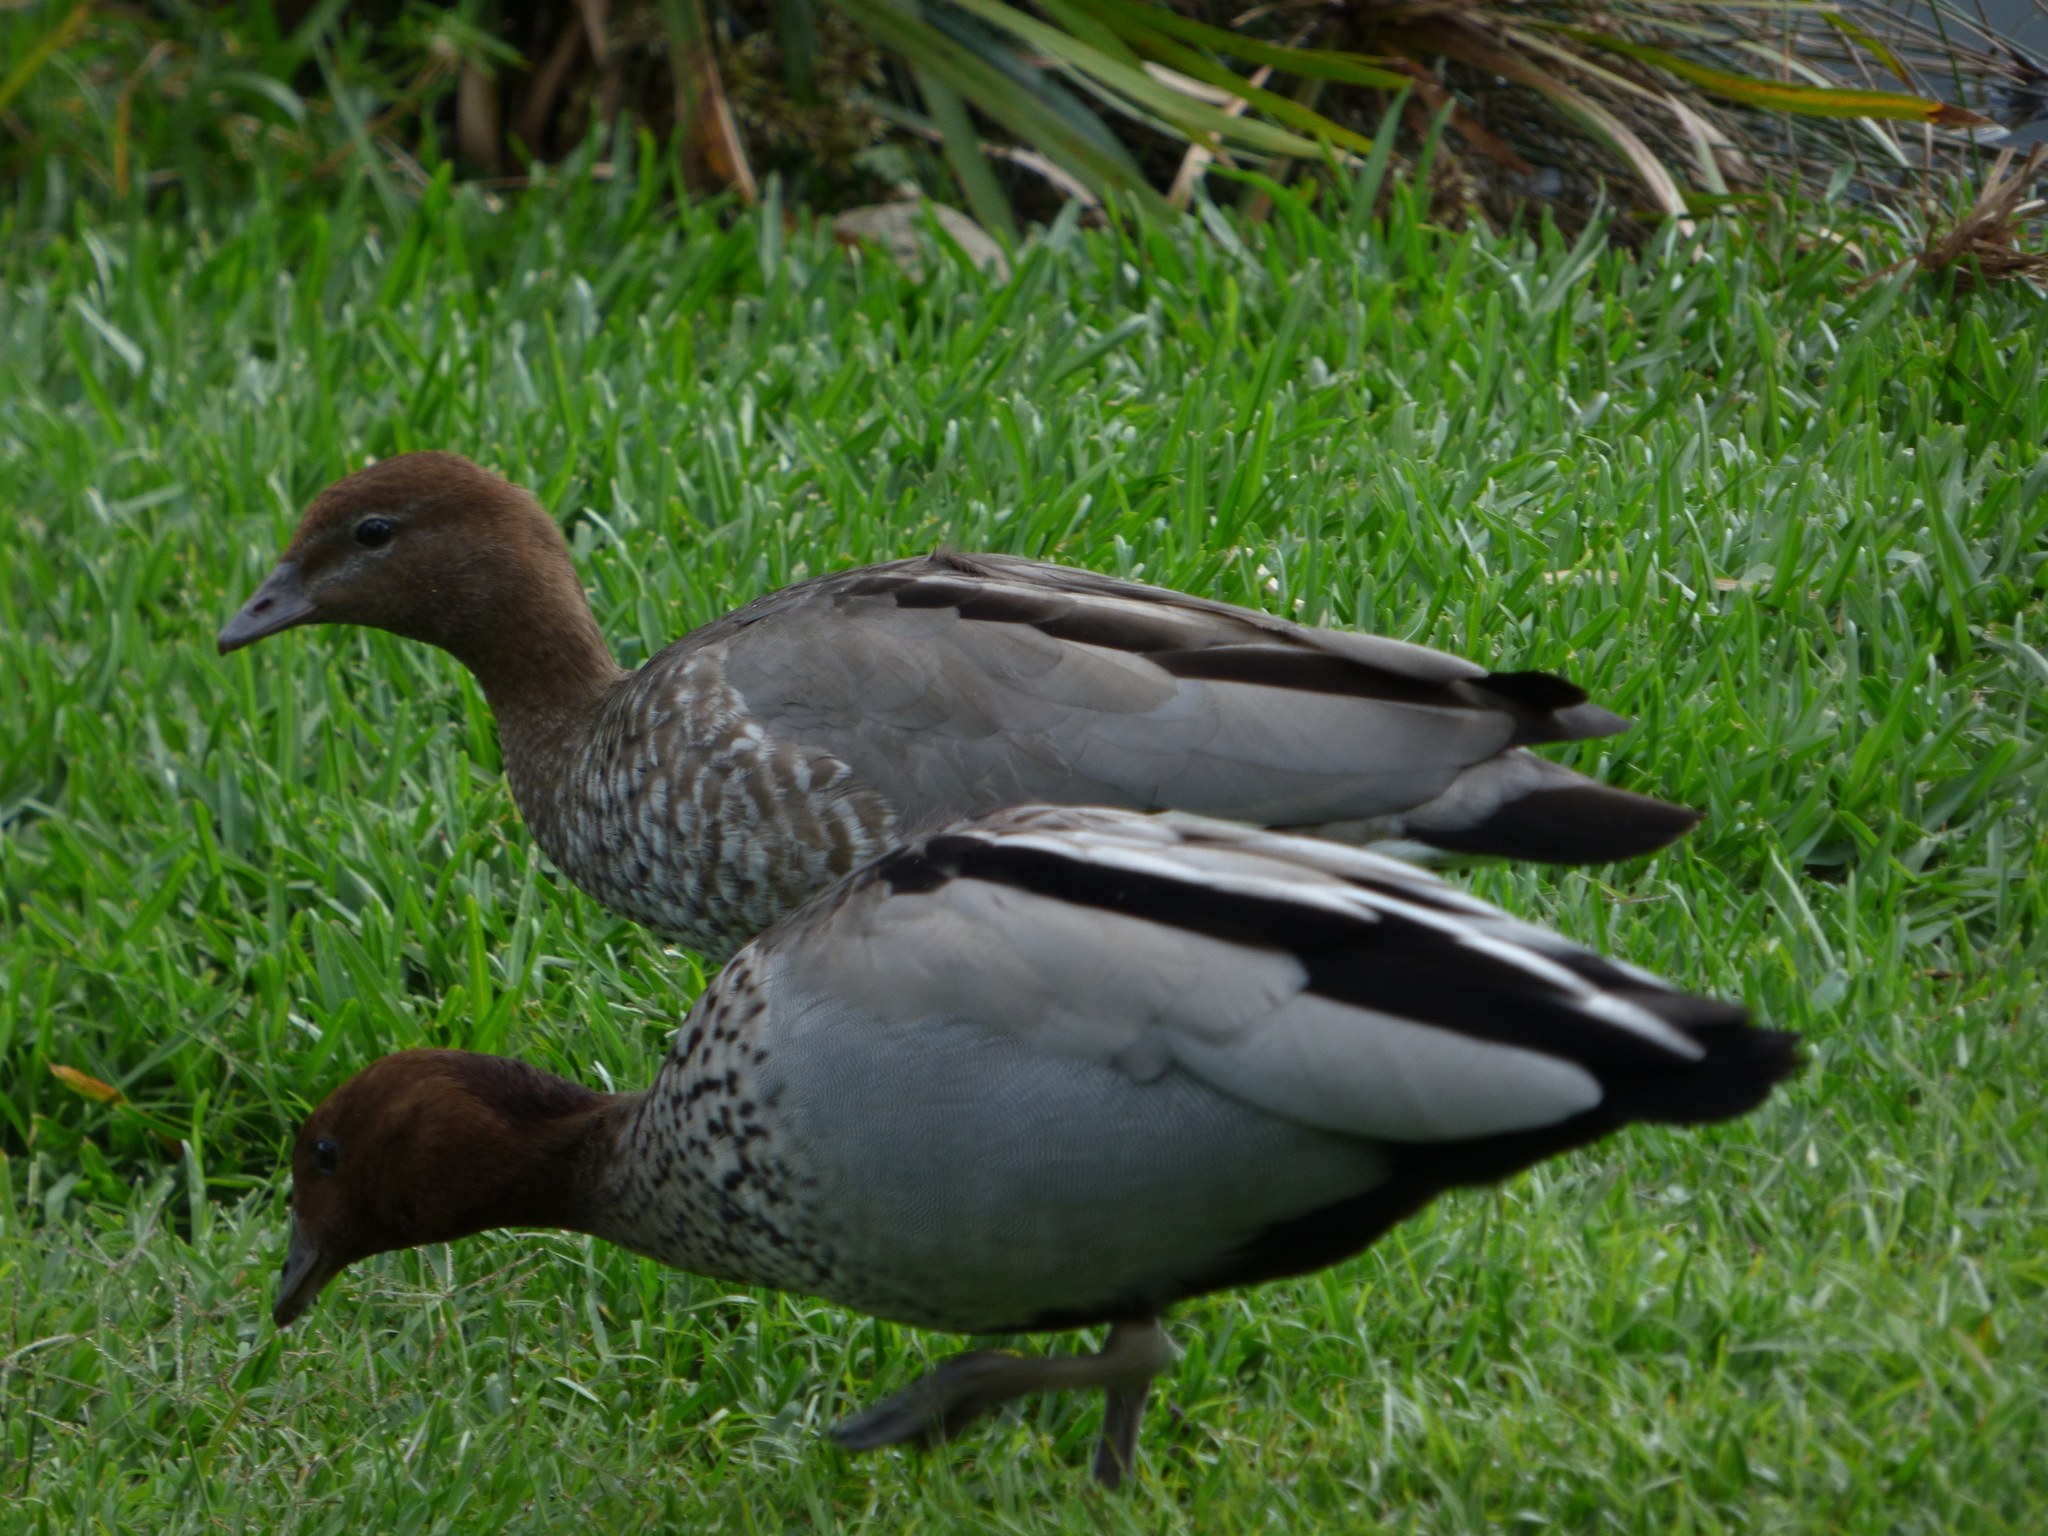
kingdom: Animalia
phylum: Chordata
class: Aves
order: Anseriformes
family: Anatidae
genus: Chenonetta
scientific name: Chenonetta jubata
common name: Maned duck
